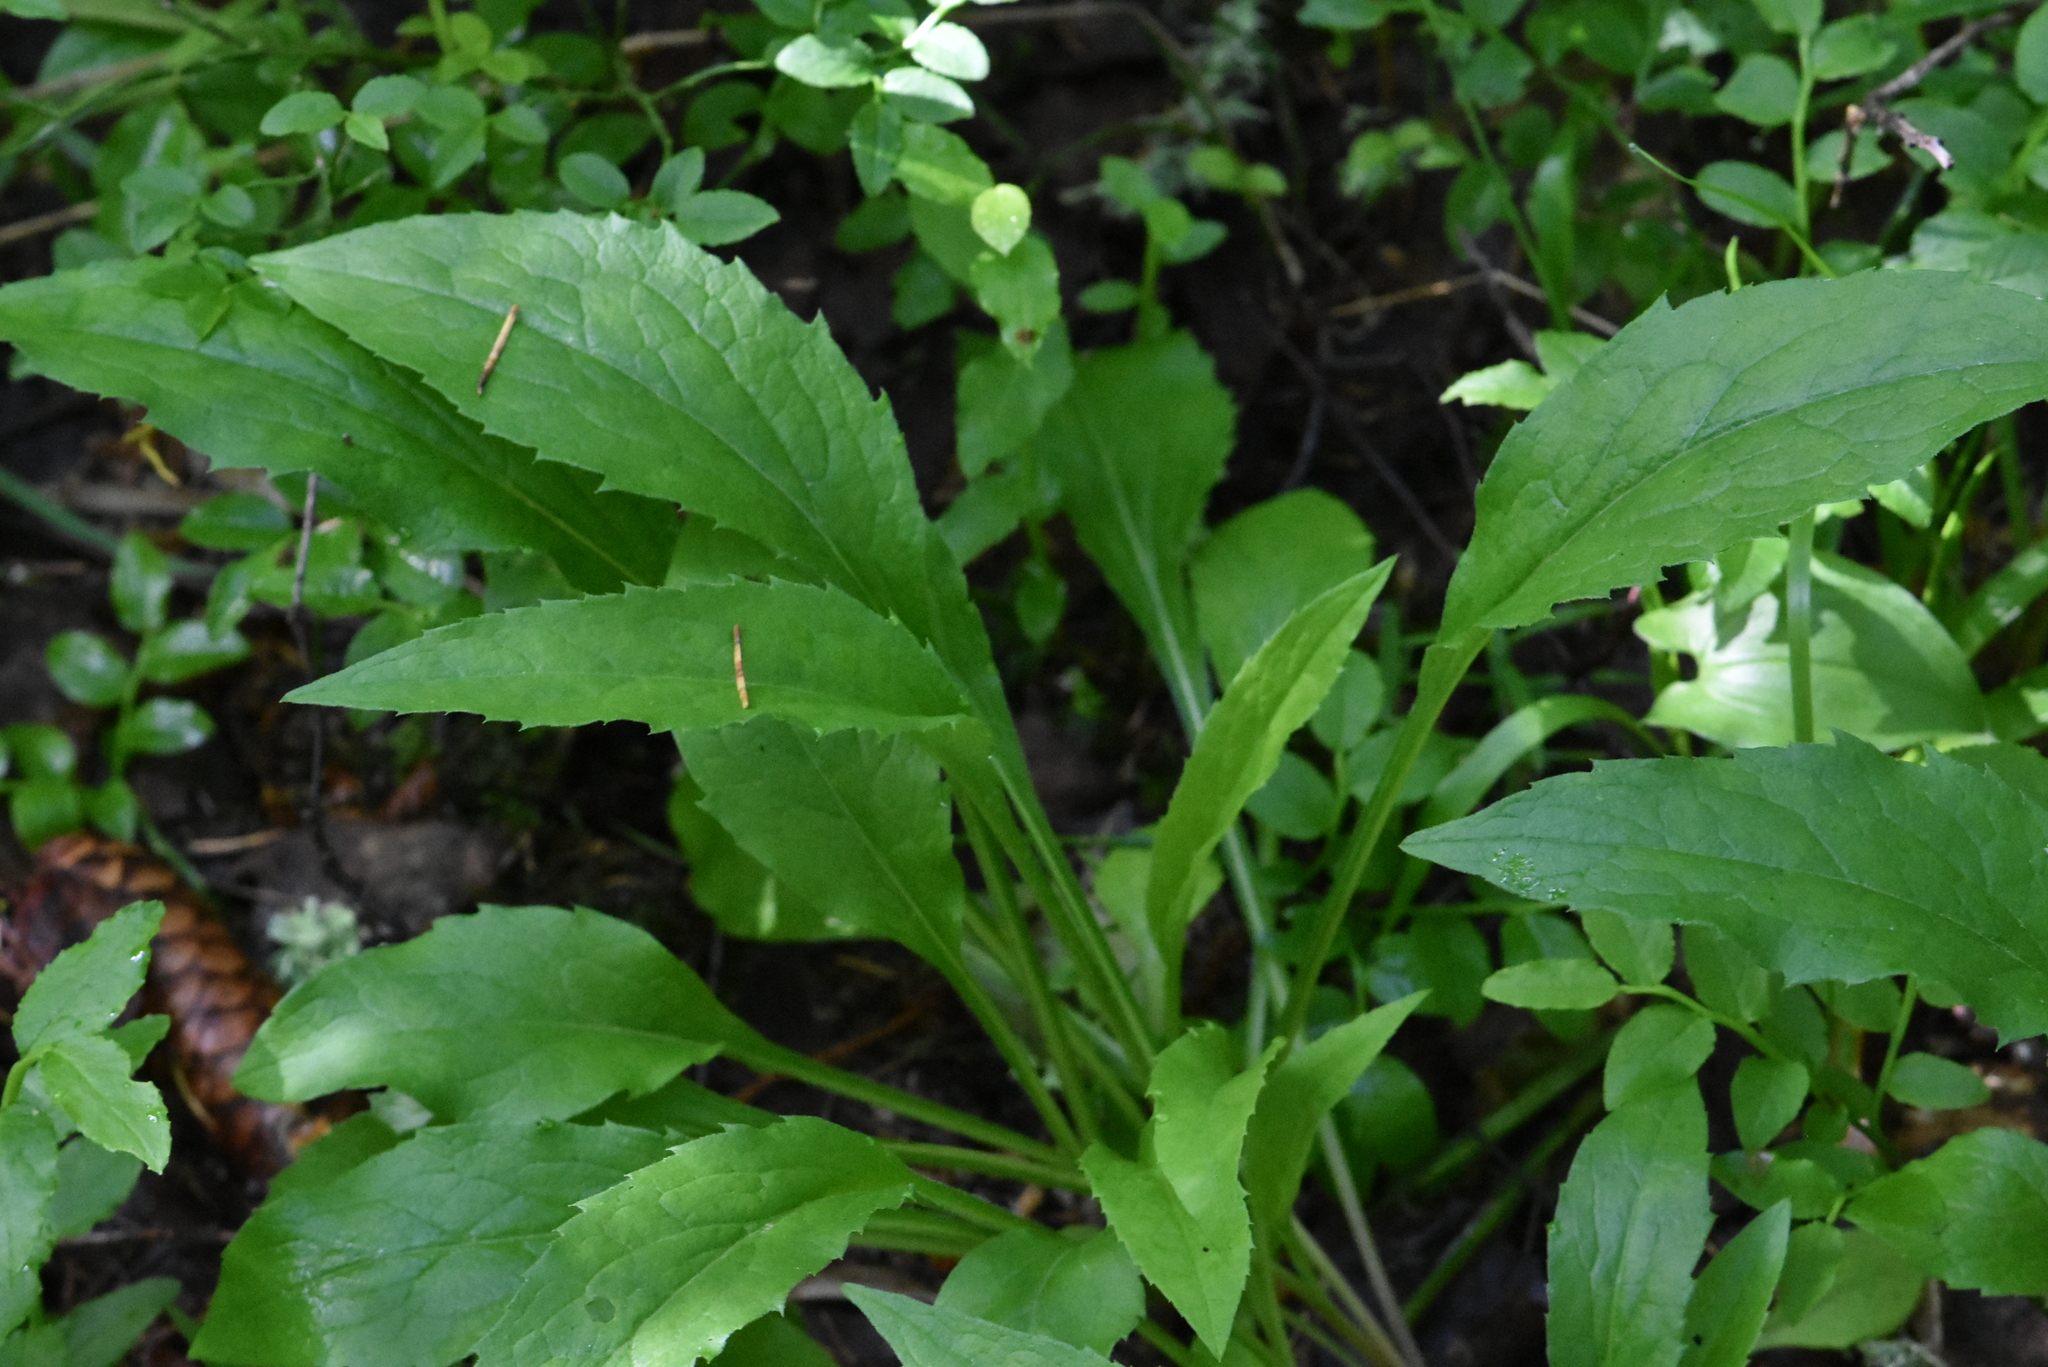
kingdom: Plantae
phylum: Tracheophyta
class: Magnoliopsida
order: Asterales
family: Asteraceae
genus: Solidago
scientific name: Solidago virgaurea
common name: Goldenrod
